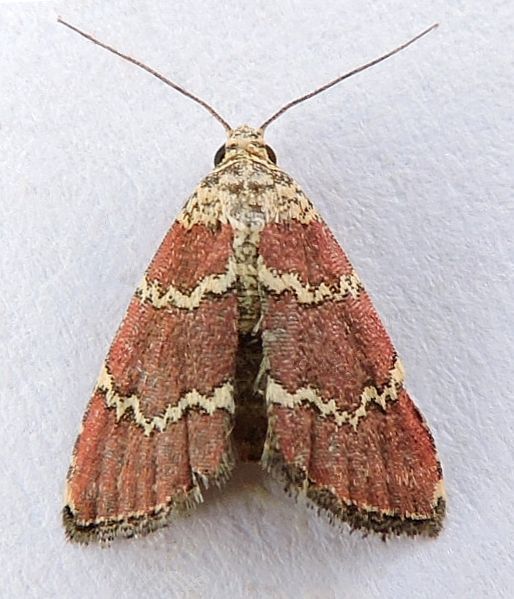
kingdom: Animalia
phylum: Arthropoda
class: Insecta
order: Lepidoptera
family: Noctuidae
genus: Phoenicophanta
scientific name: Phoenicophanta modestula
